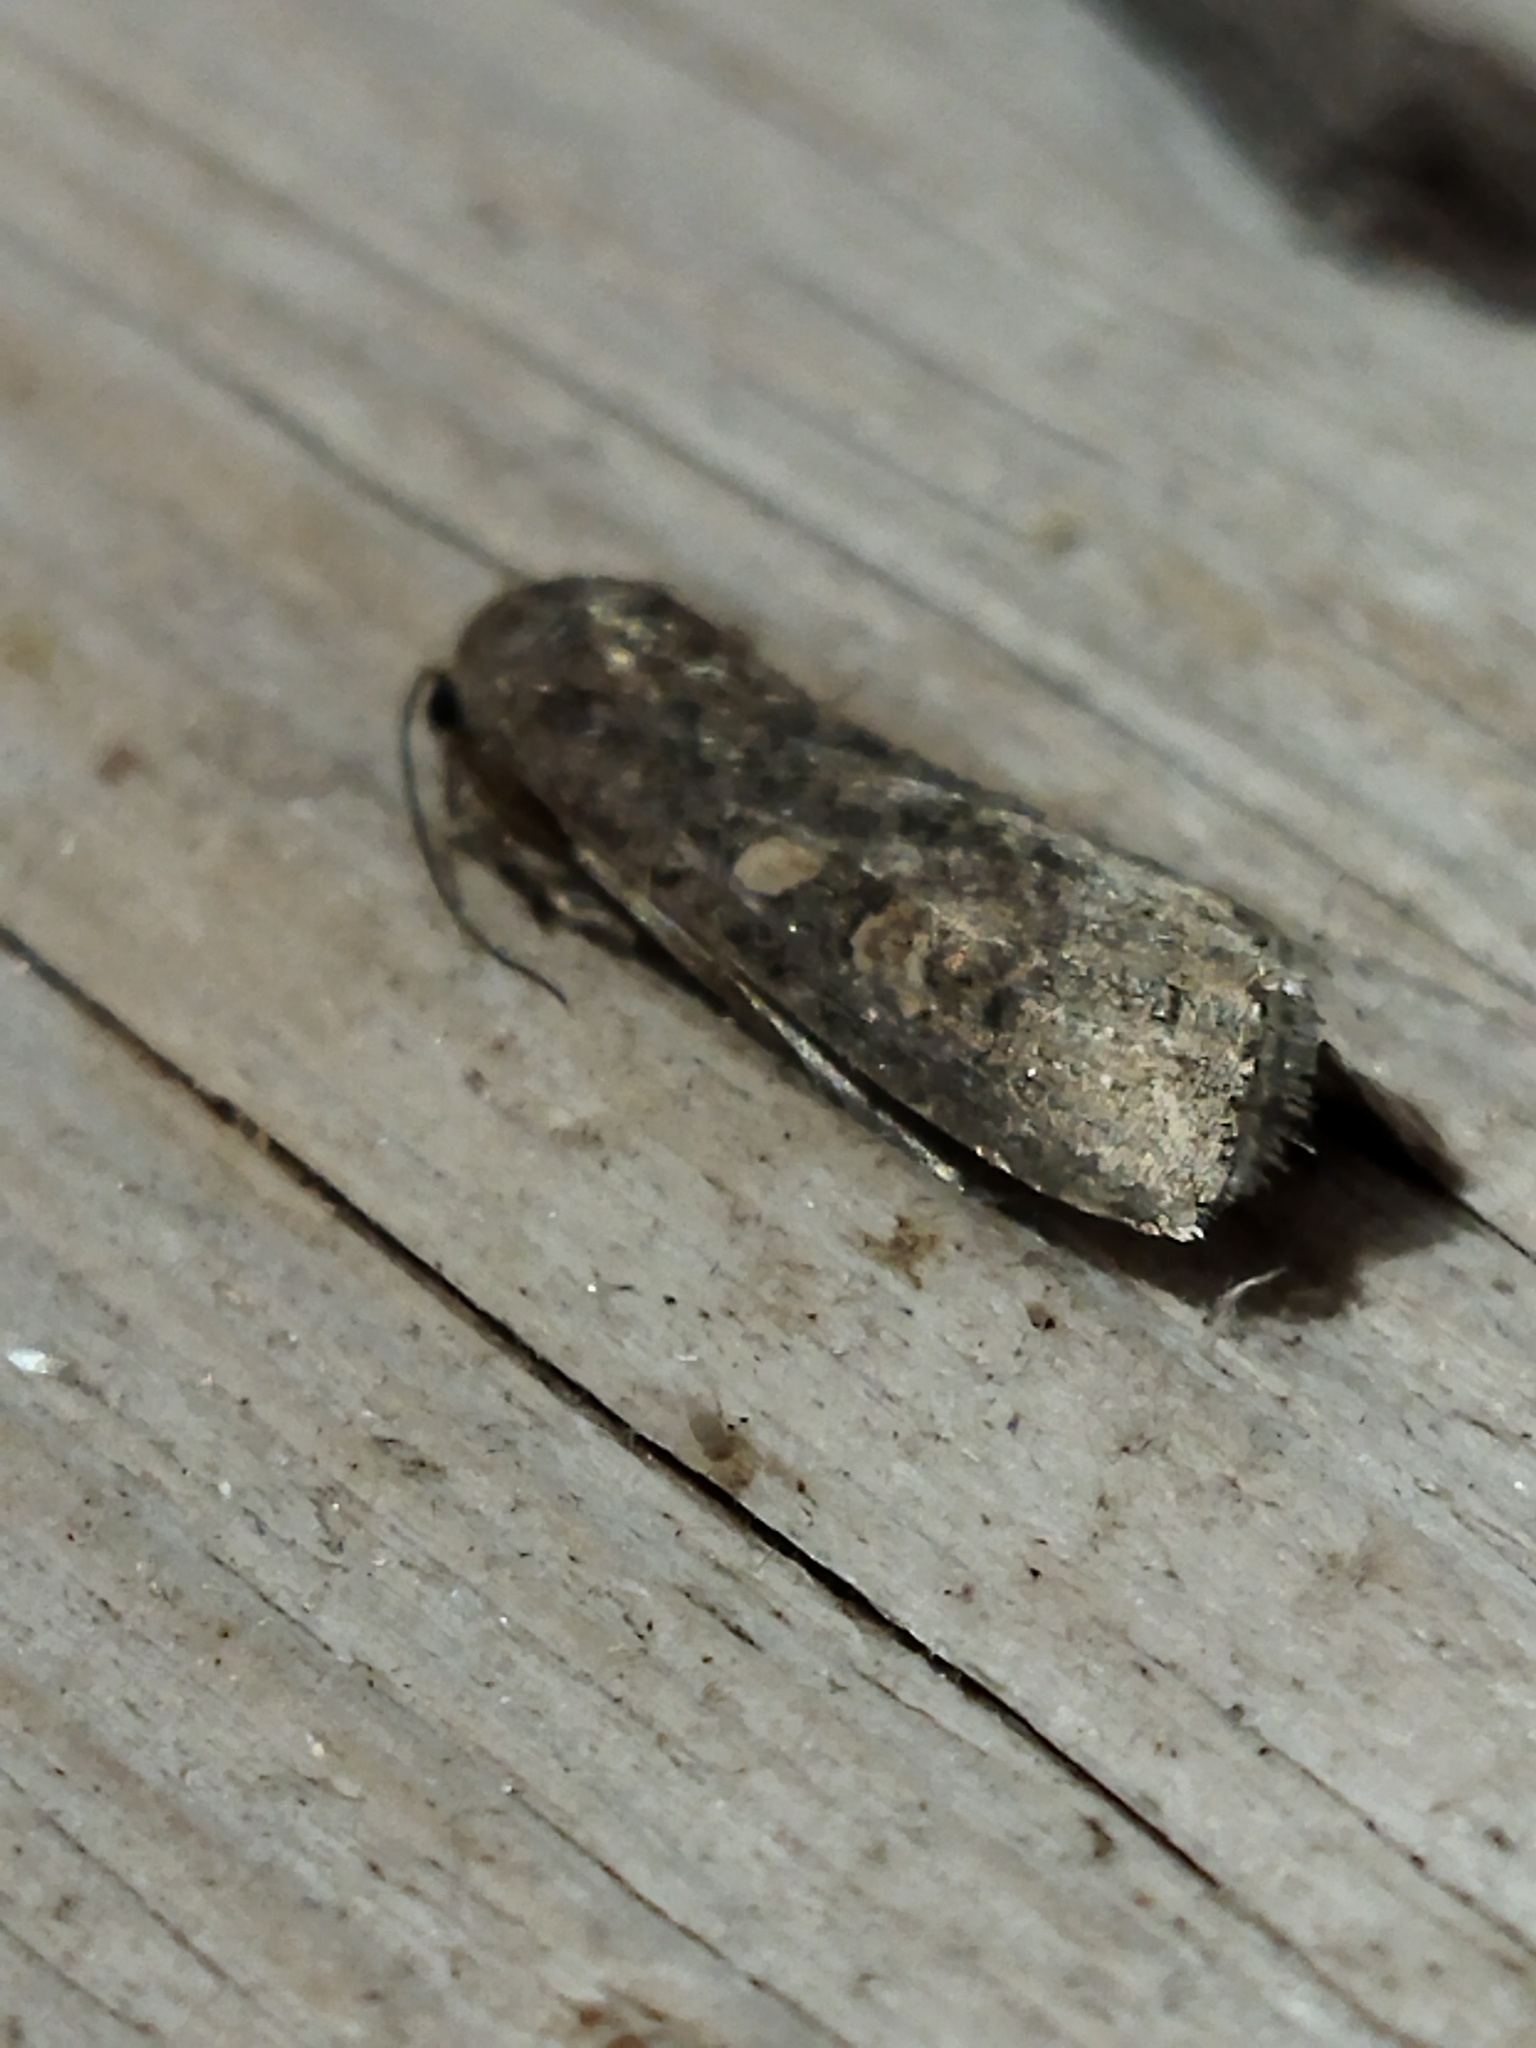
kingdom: Animalia
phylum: Arthropoda
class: Insecta
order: Lepidoptera
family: Noctuidae
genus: Spodoptera
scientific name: Spodoptera exigua
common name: Beet armyworm
